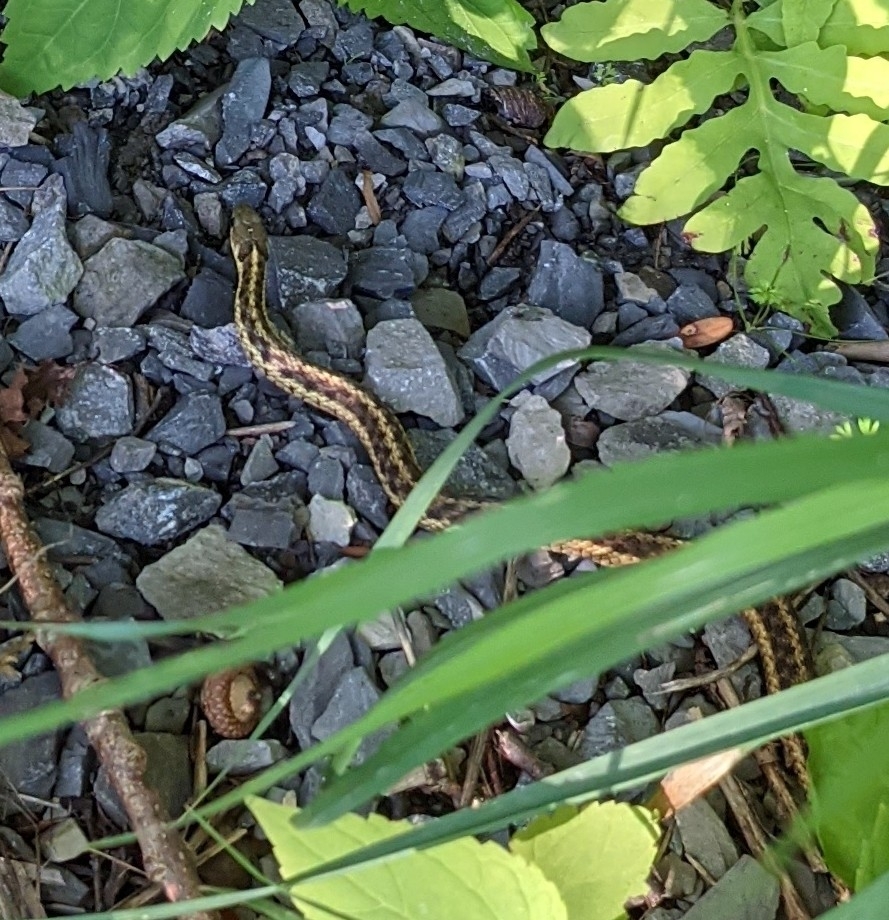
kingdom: Animalia
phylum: Chordata
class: Squamata
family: Colubridae
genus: Thamnophis
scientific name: Thamnophis sirtalis
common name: Common garter snake
